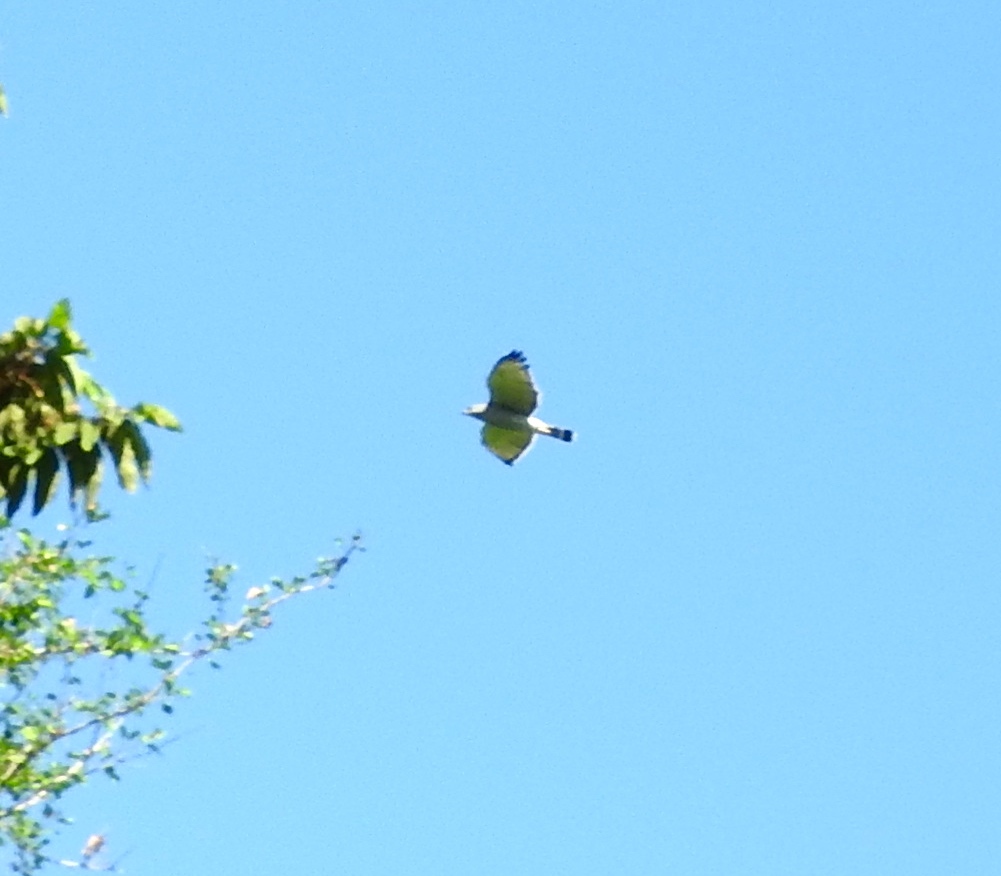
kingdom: Animalia
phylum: Chordata
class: Aves
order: Accipitriformes
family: Accipitridae
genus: Buteo
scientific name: Buteo nitidus
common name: Grey-lined hawk
